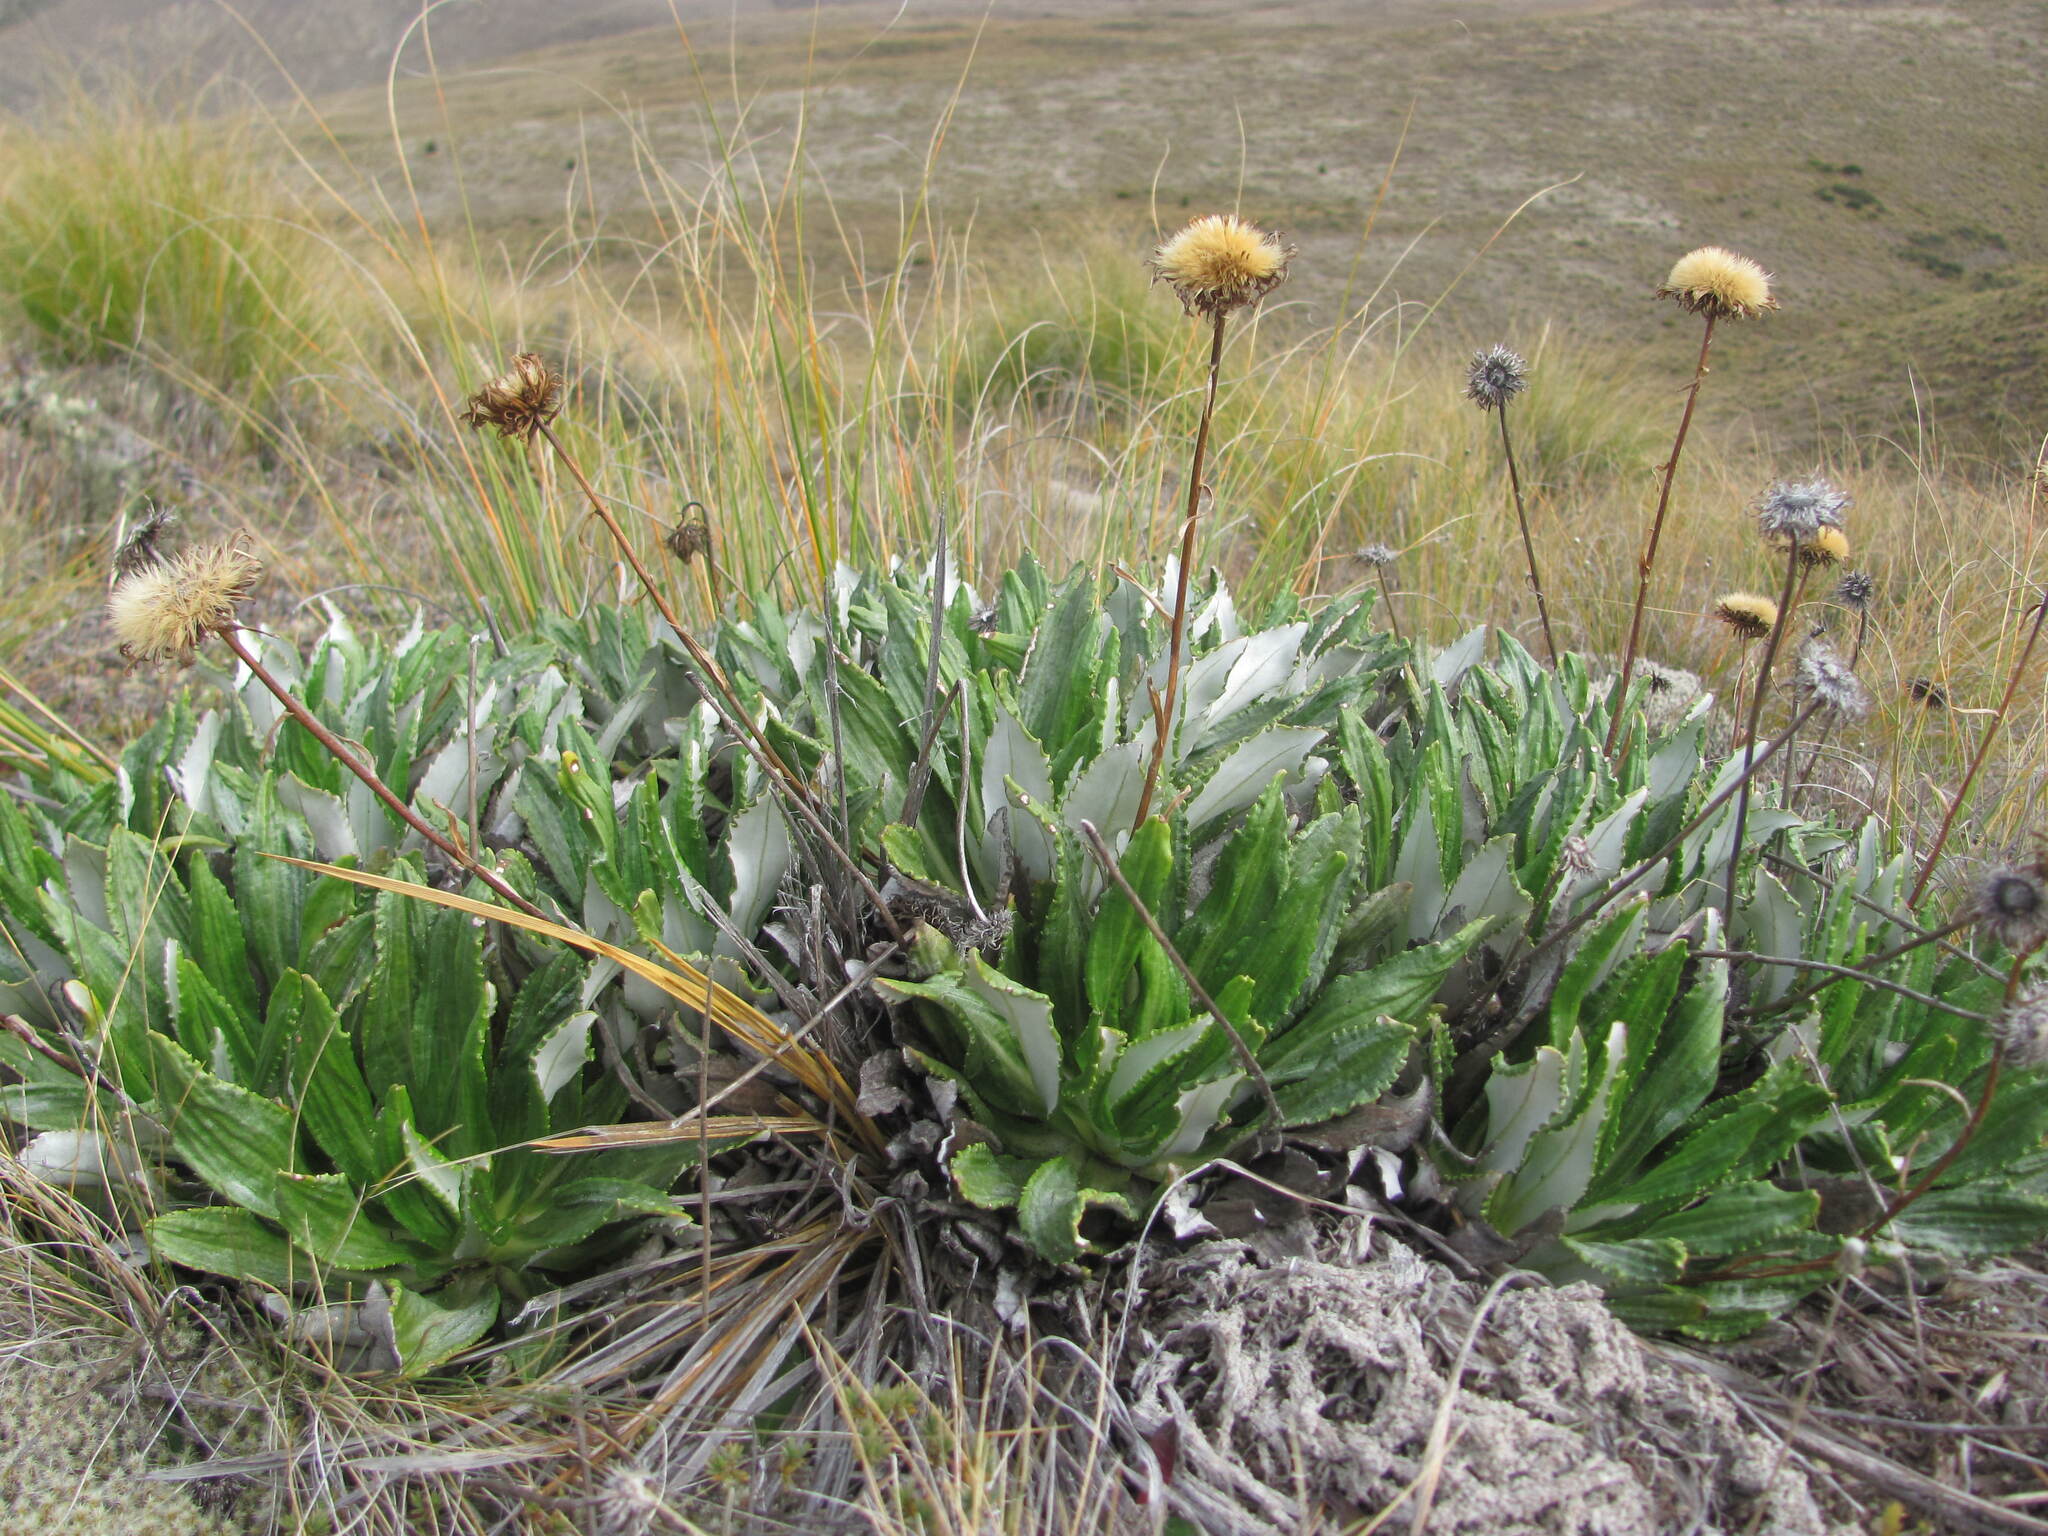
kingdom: Plantae
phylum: Tracheophyta
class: Magnoliopsida
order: Asterales
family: Asteraceae
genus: Celmisia
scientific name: Celmisia densiflora
